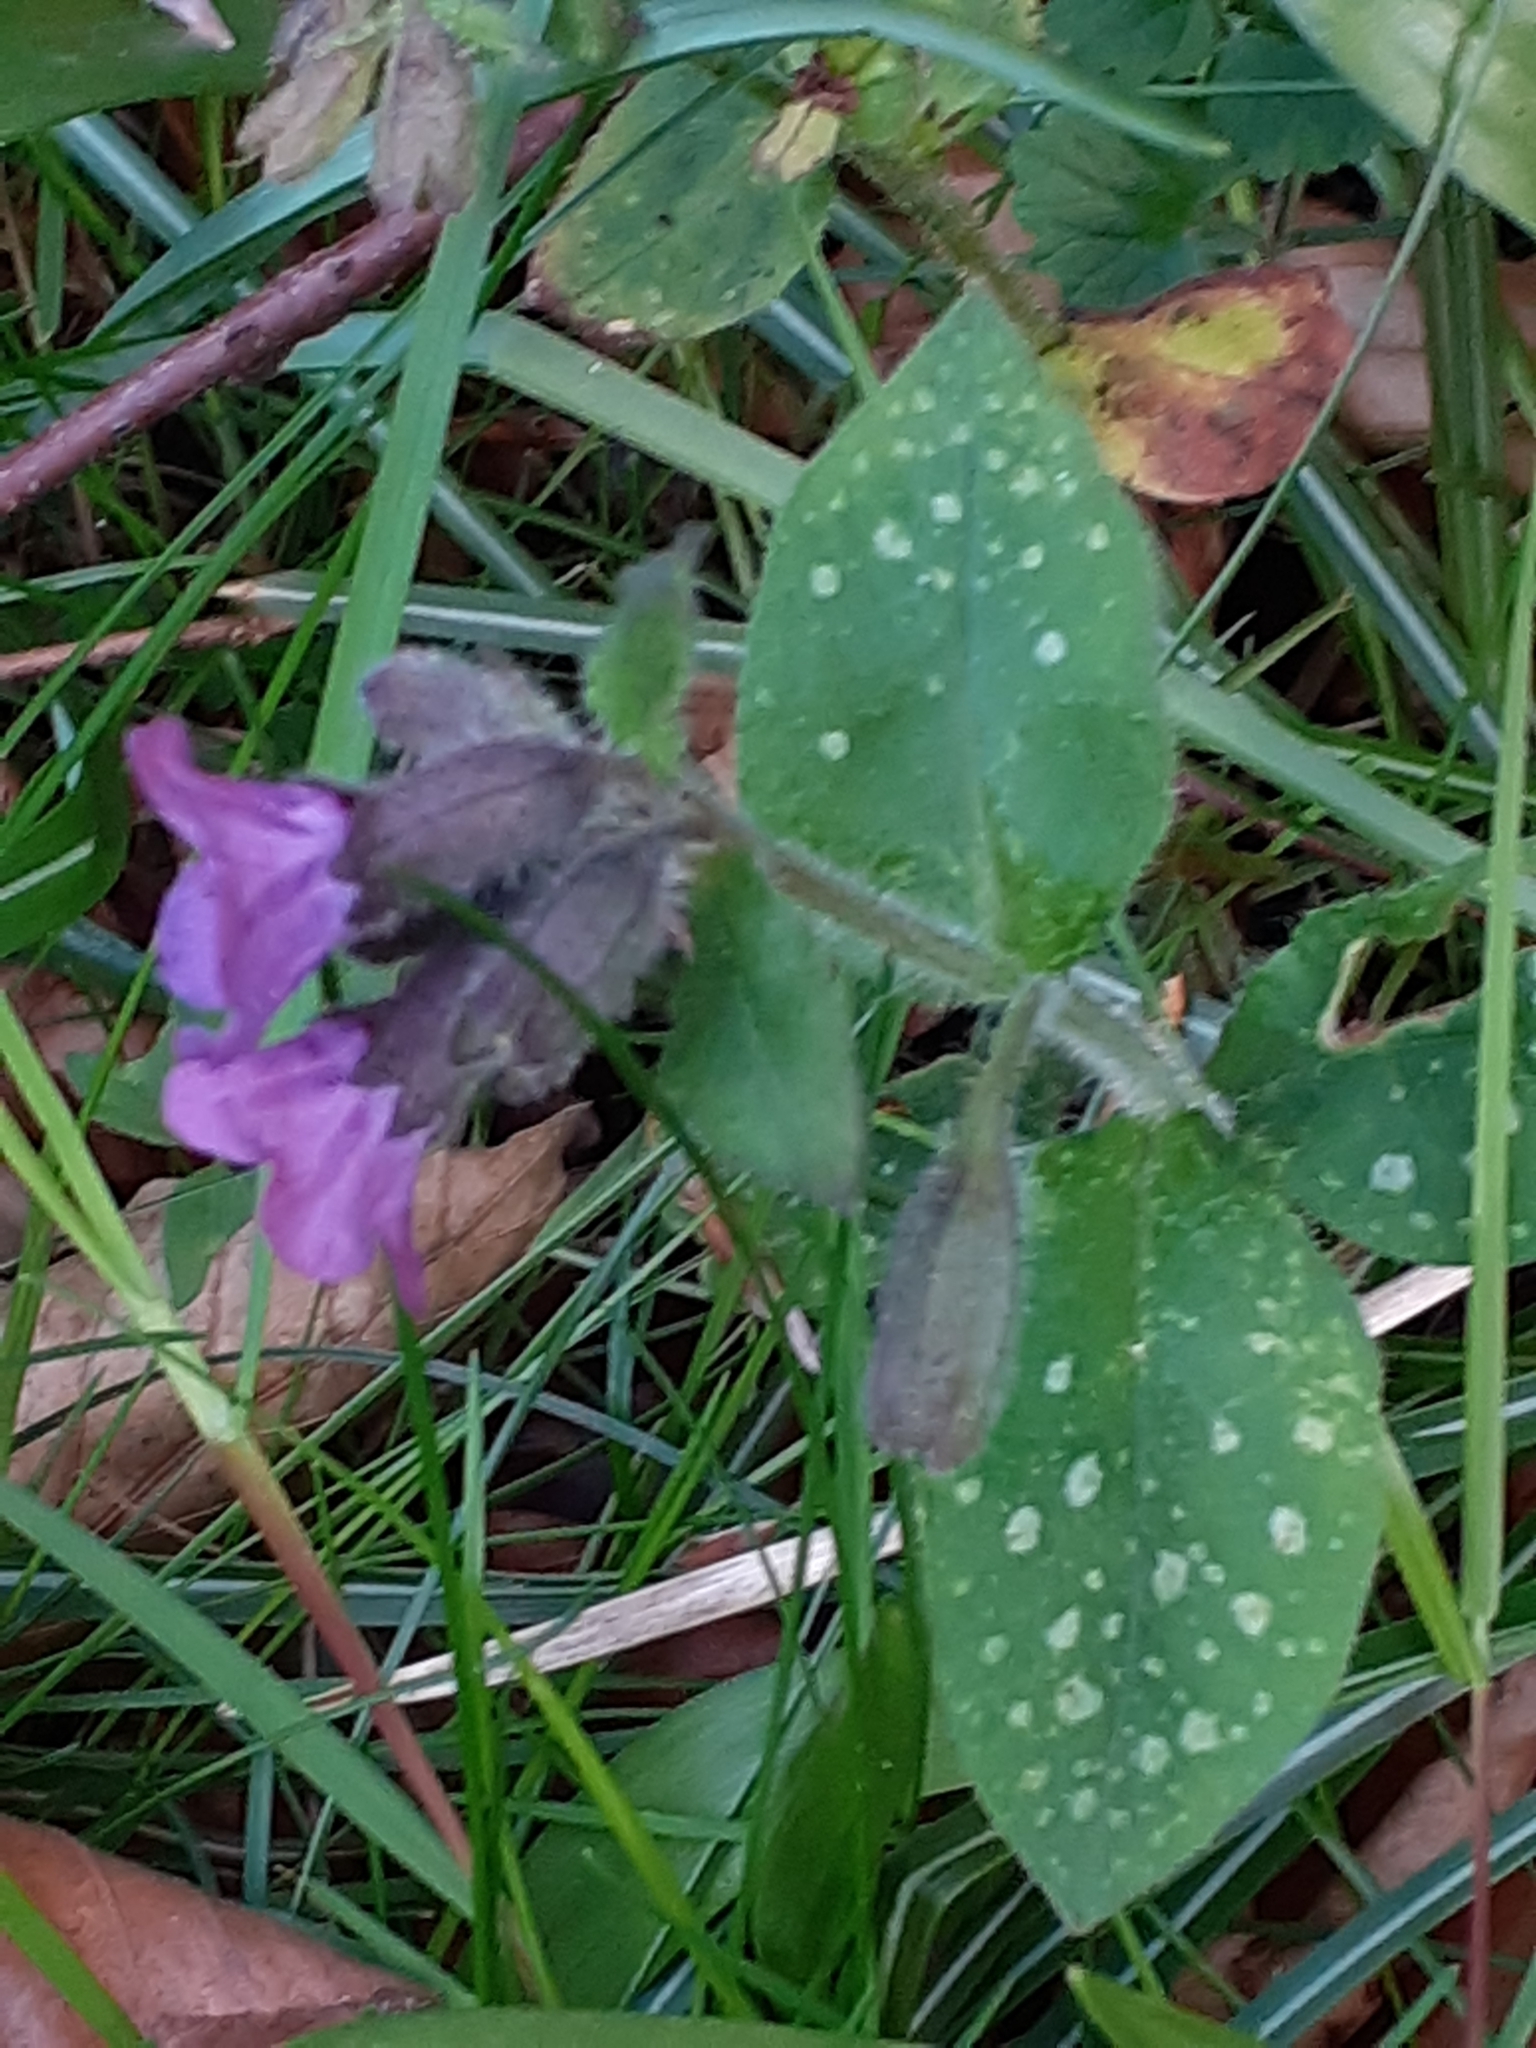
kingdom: Plantae
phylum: Tracheophyta
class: Magnoliopsida
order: Boraginales
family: Boraginaceae
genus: Pulmonaria
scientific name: Pulmonaria officinalis
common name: Lungwort
